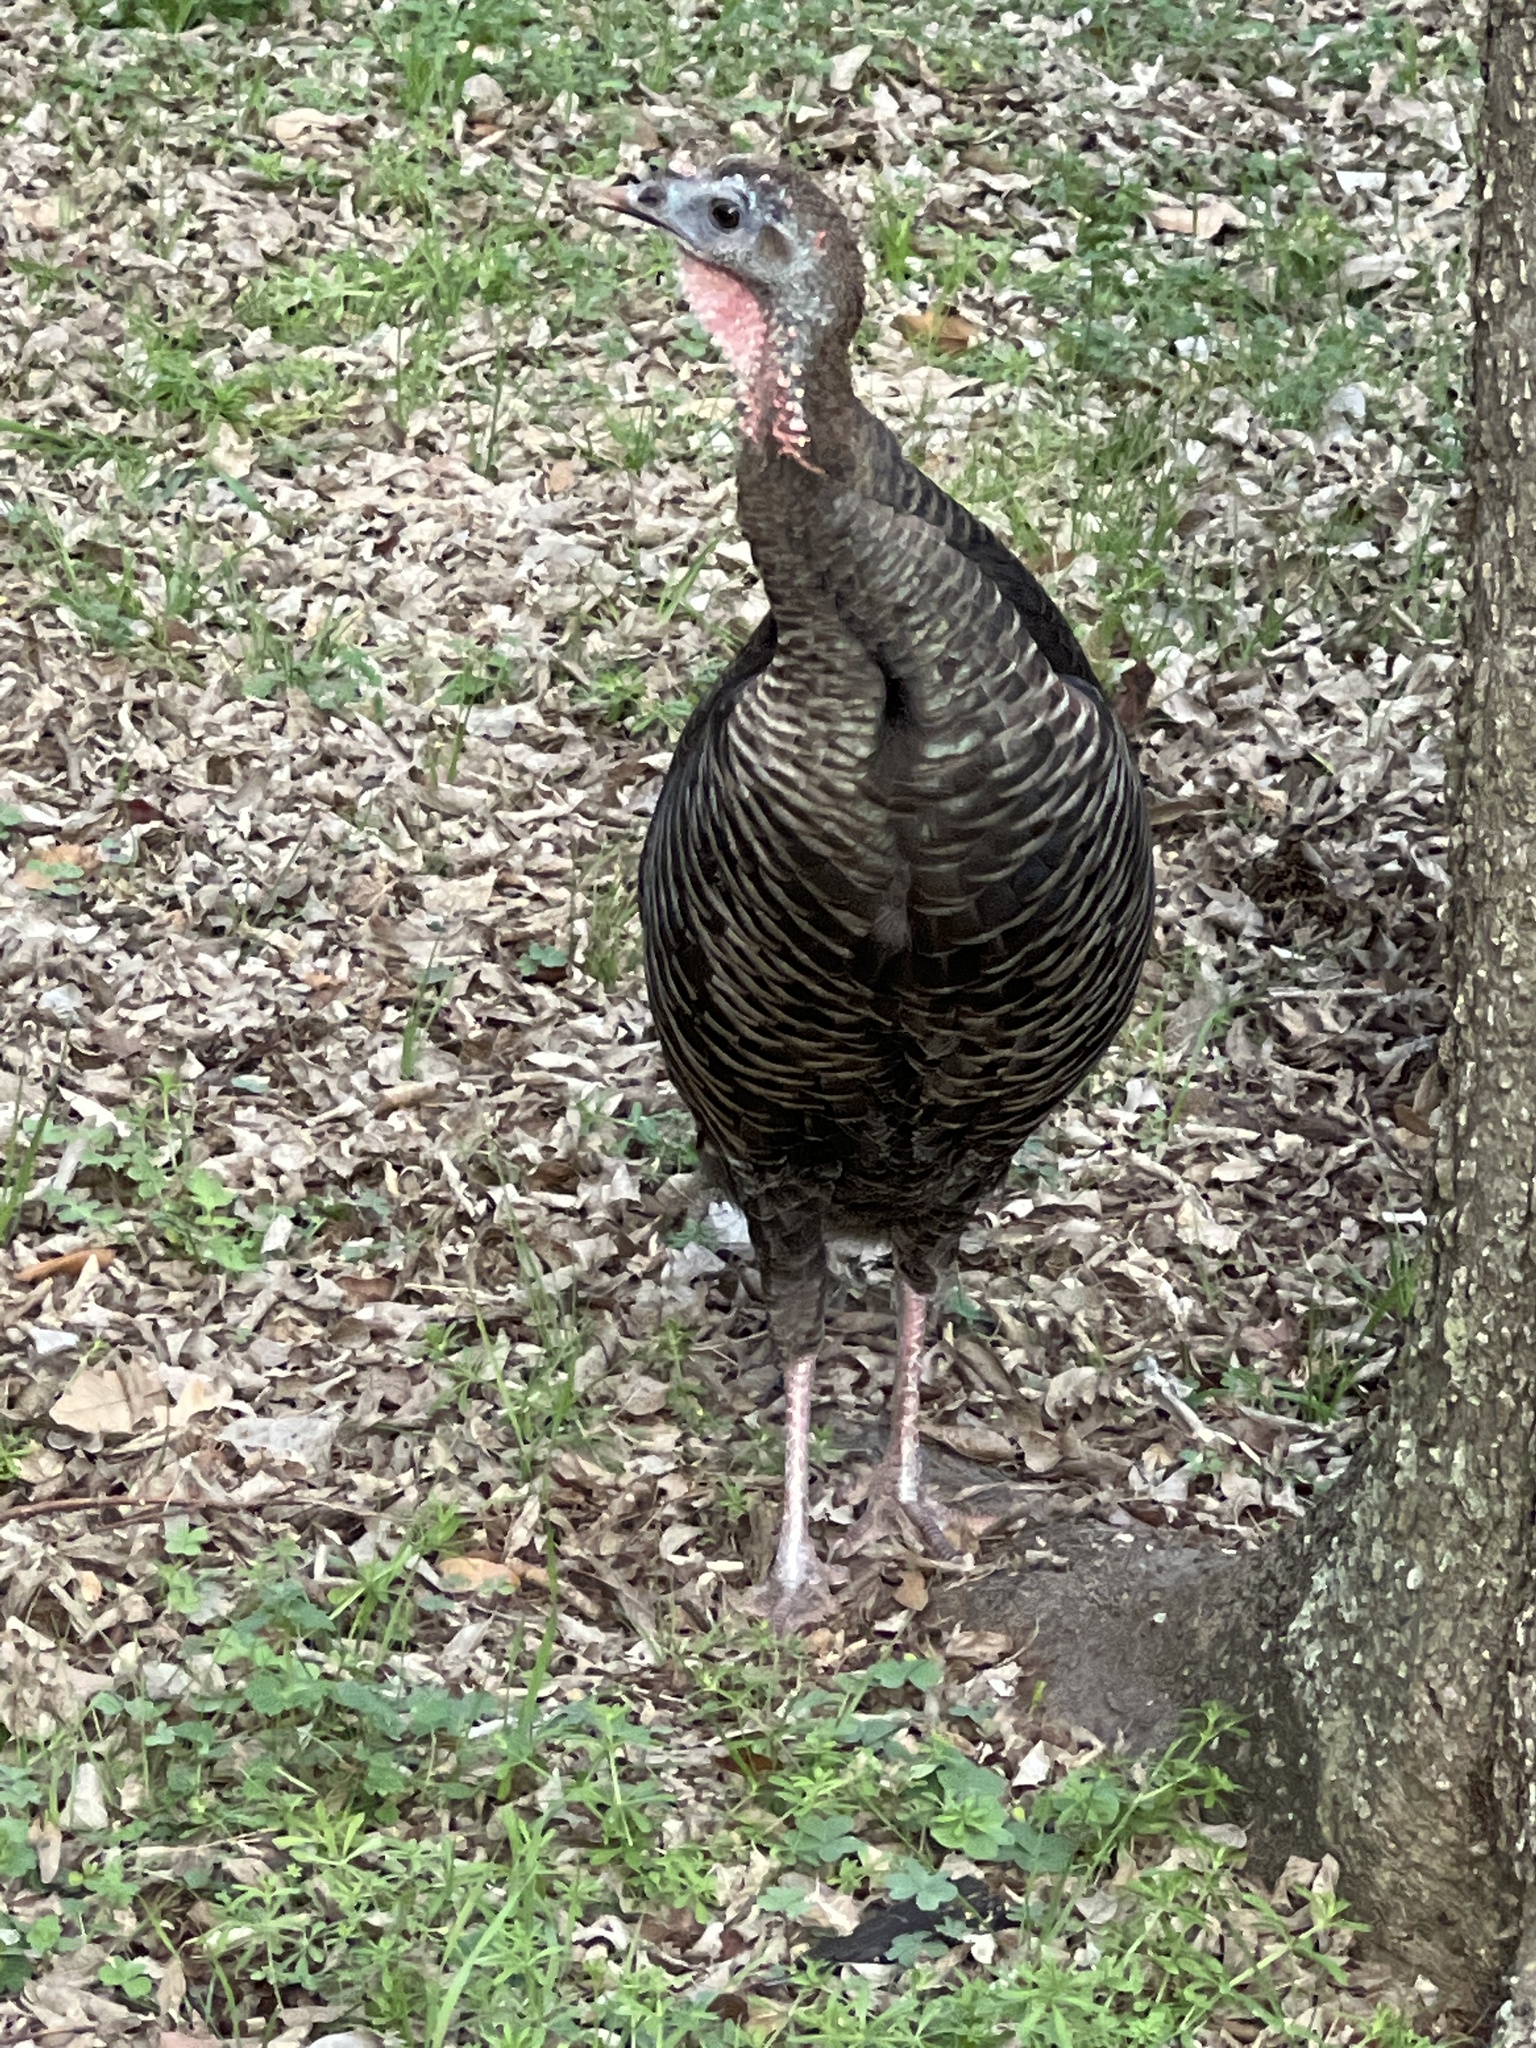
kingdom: Animalia
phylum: Chordata
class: Aves
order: Galliformes
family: Phasianidae
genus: Meleagris
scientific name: Meleagris gallopavo
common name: Wild turkey
